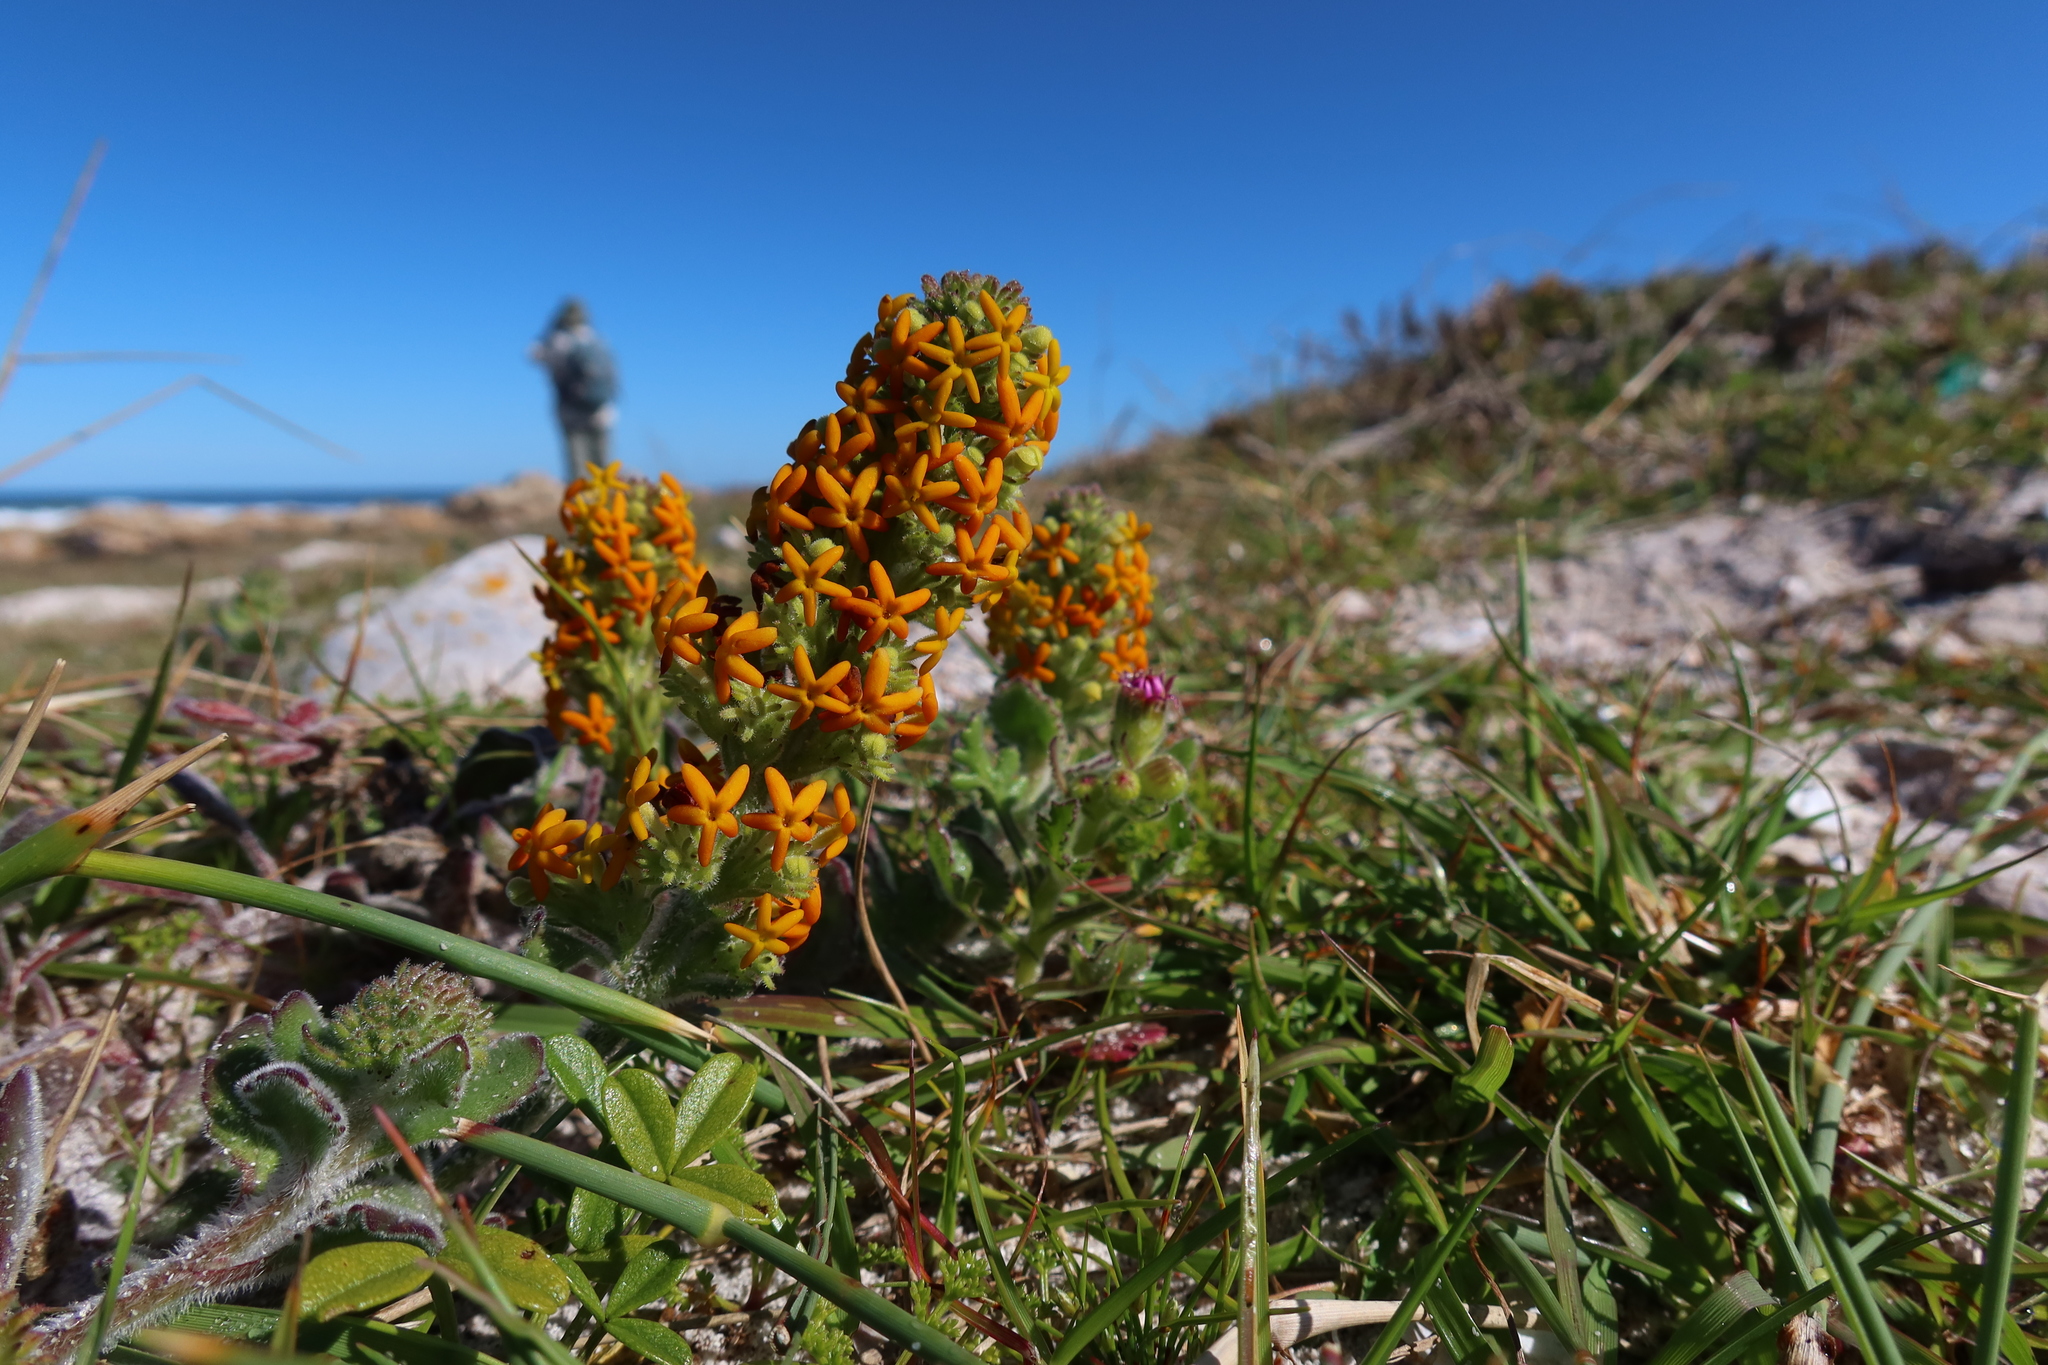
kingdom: Plantae
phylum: Tracheophyta
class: Magnoliopsida
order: Lamiales
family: Scrophulariaceae
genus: Manulea
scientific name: Manulea tomentosa
